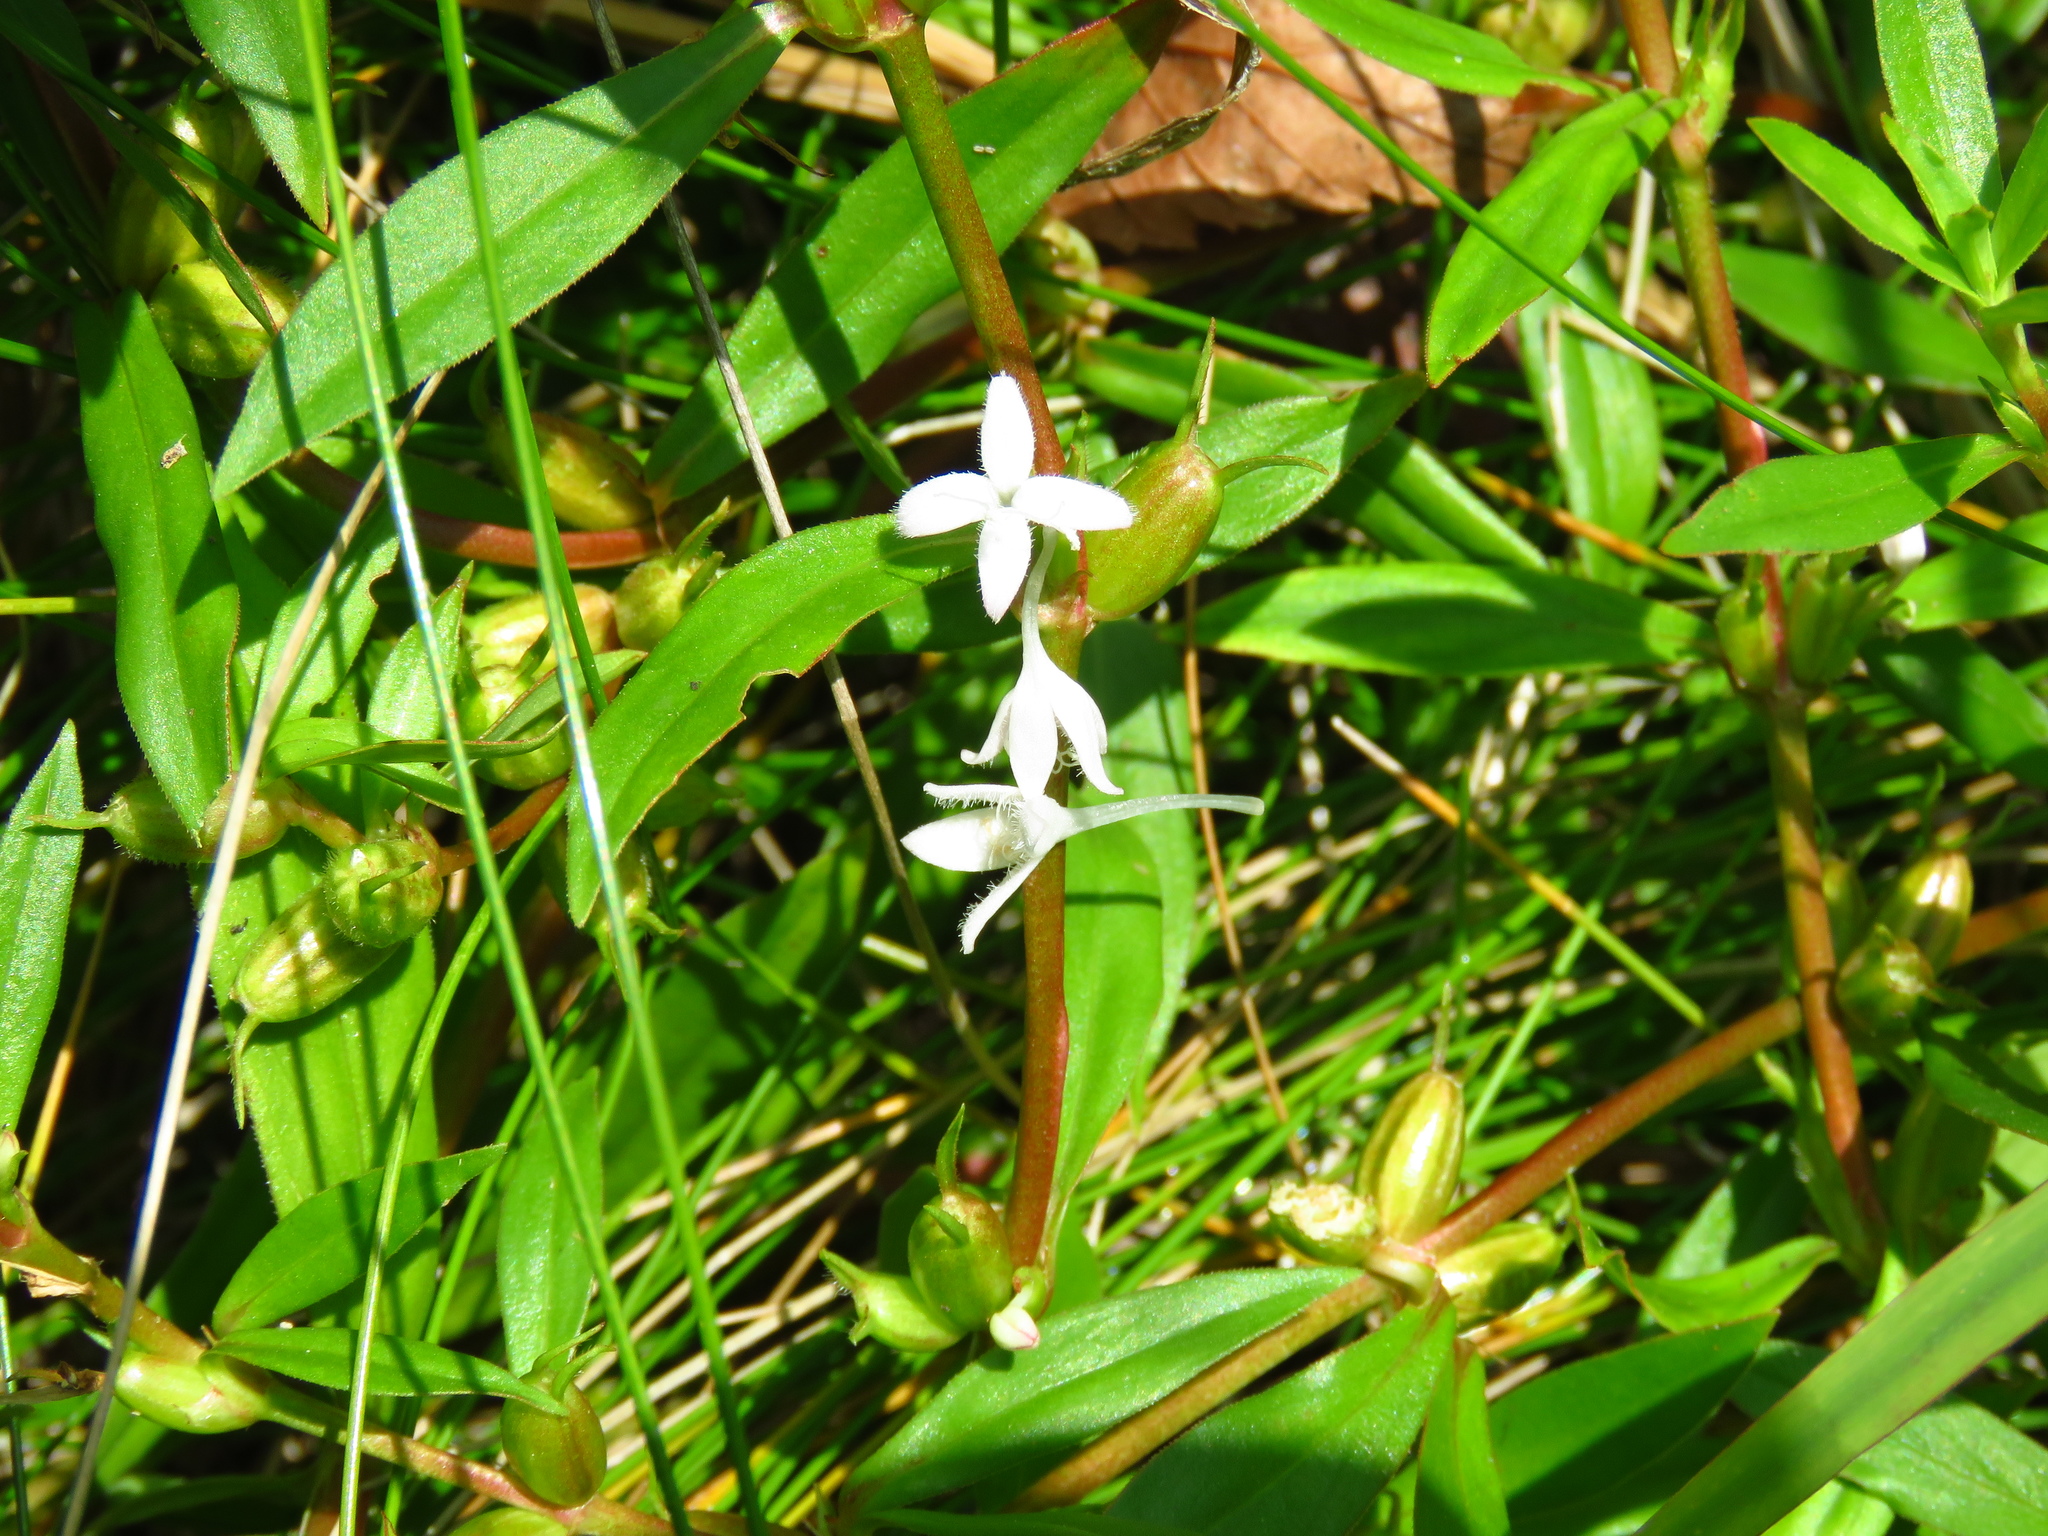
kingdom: Plantae
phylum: Tracheophyta
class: Magnoliopsida
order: Gentianales
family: Rubiaceae
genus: Diodia
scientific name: Diodia virginiana
